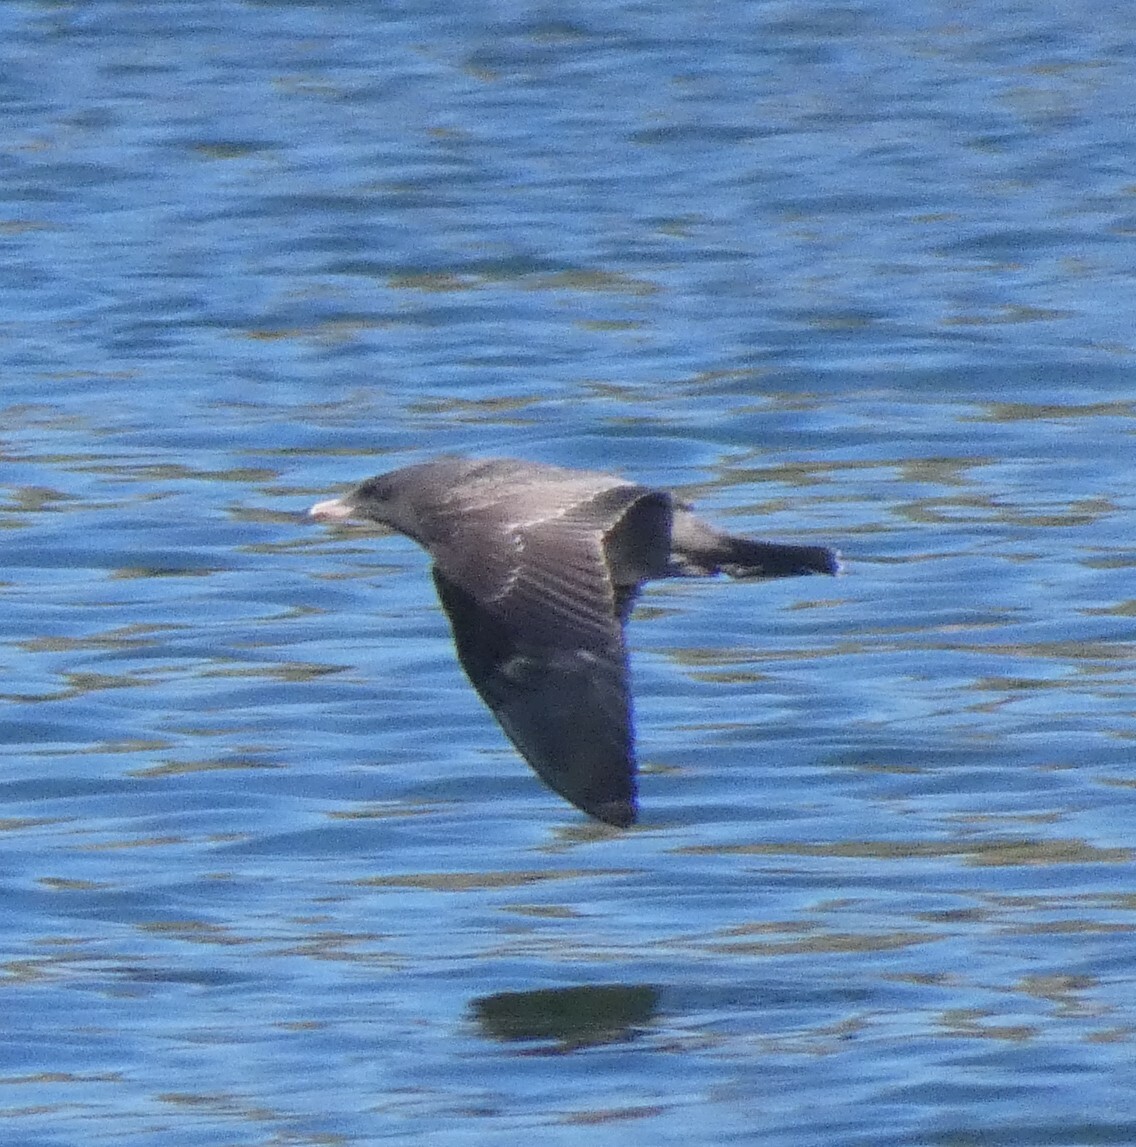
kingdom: Animalia
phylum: Chordata
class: Aves
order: Charadriiformes
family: Laridae
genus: Larus
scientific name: Larus heermanni
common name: Heermann's gull
